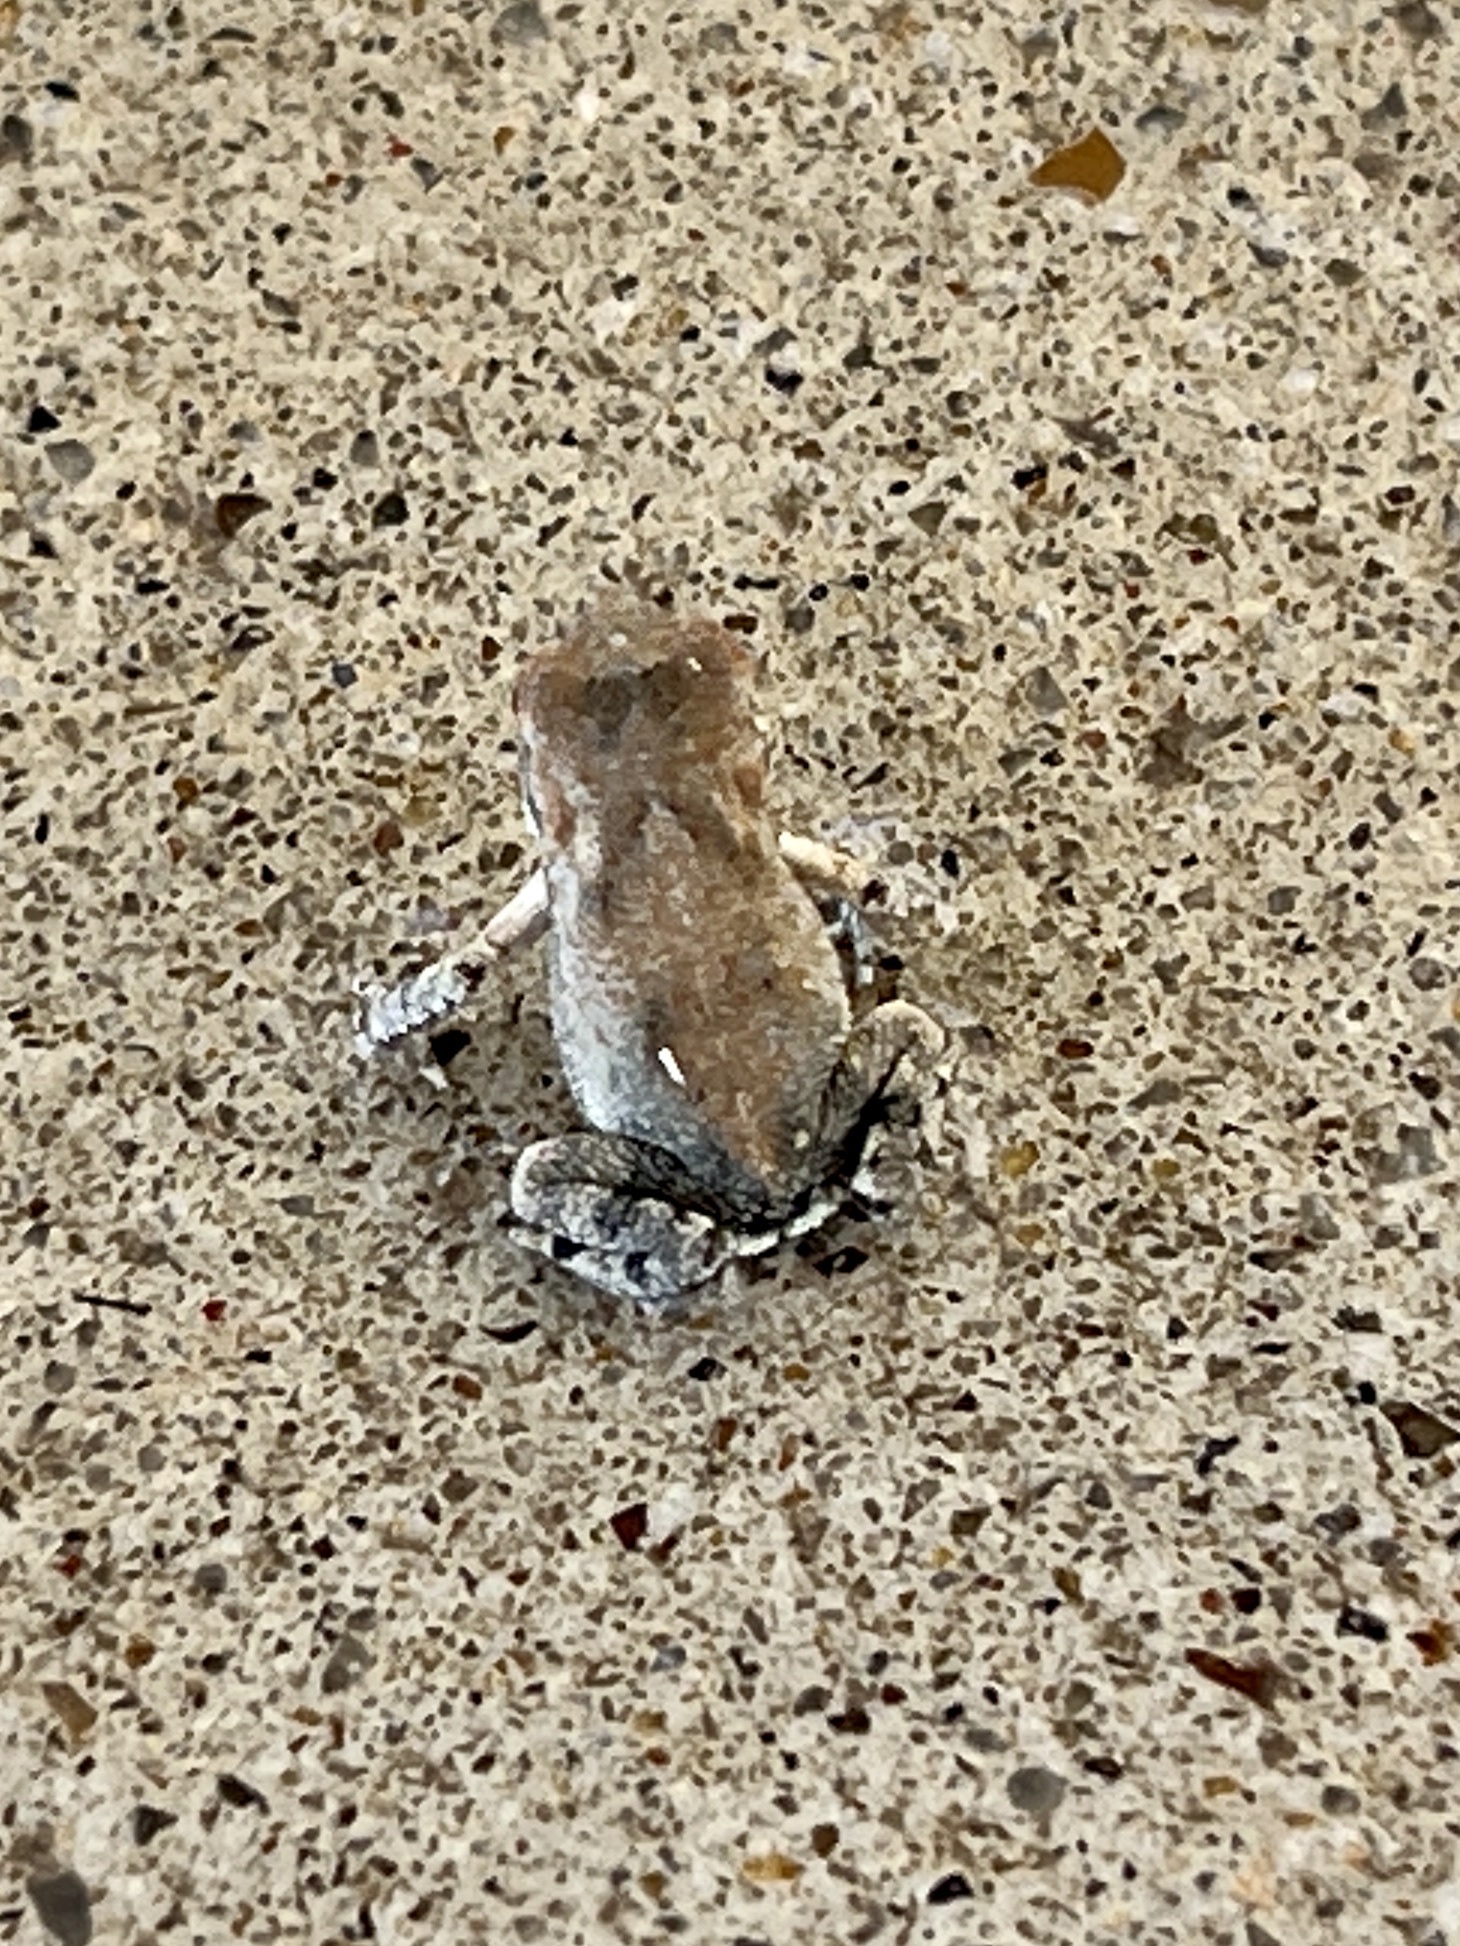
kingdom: Animalia
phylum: Chordata
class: Amphibia
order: Anura
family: Bufonidae
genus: Incilius
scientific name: Incilius nebulifer
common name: Gulf coast toad
